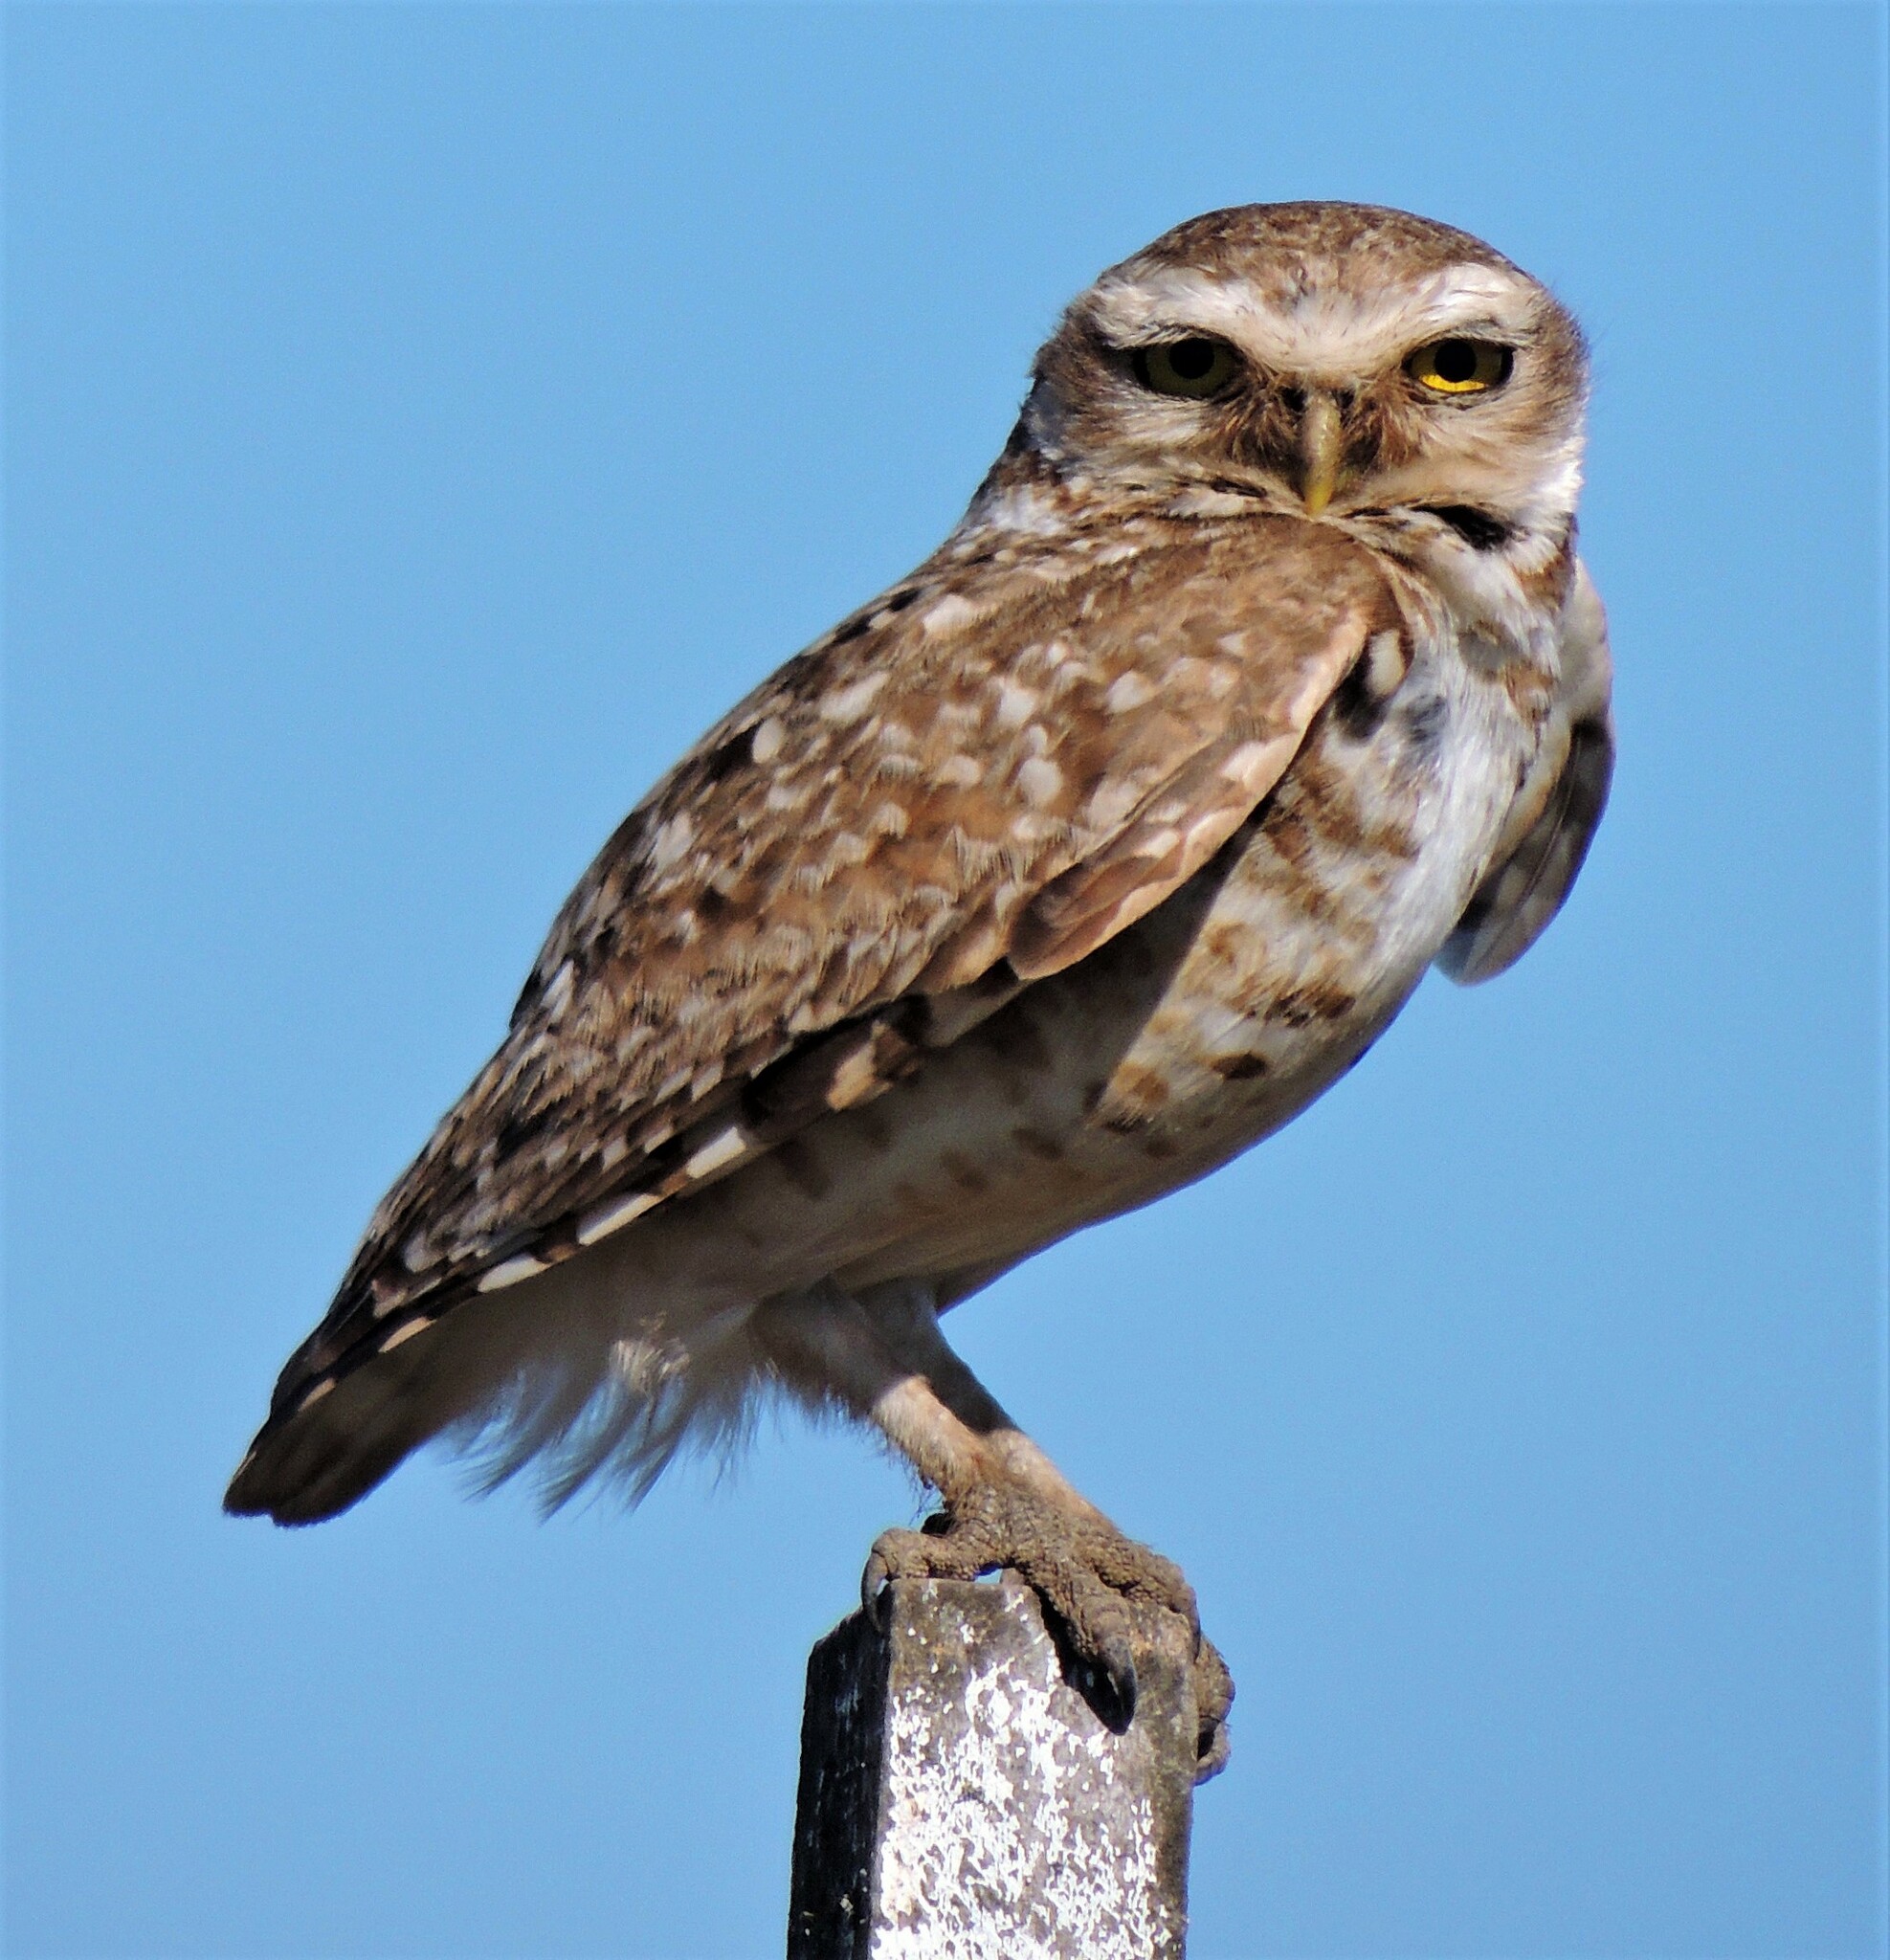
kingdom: Animalia
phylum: Chordata
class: Aves
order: Strigiformes
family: Strigidae
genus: Athene
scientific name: Athene cunicularia
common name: Burrowing owl
